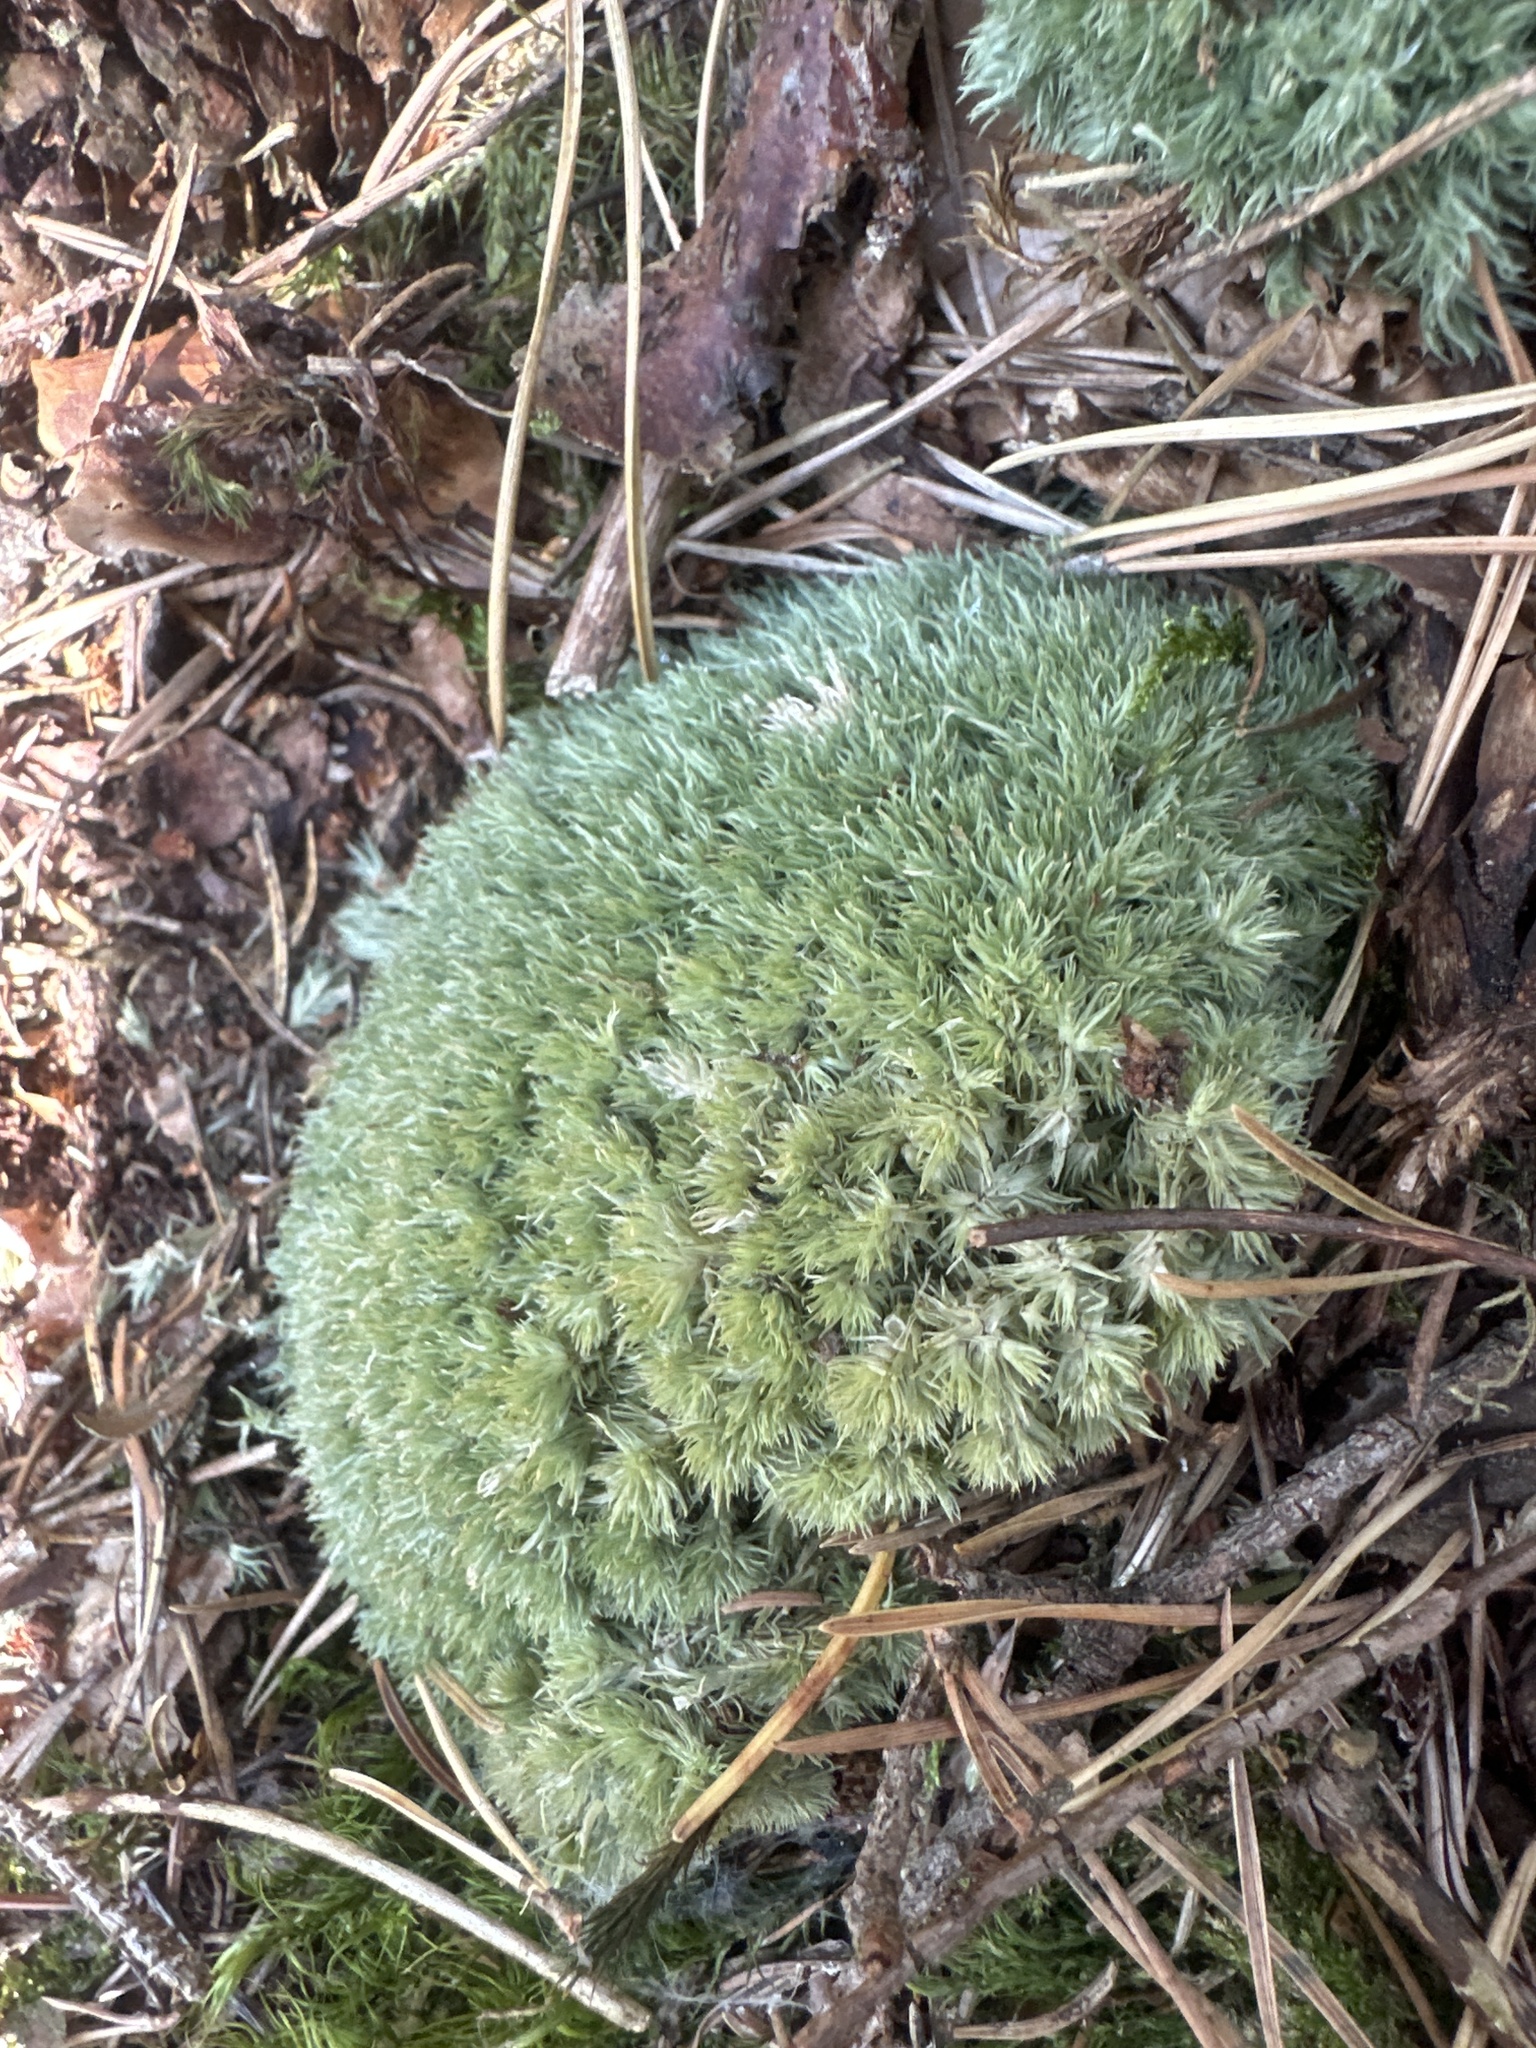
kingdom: Plantae
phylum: Bryophyta
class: Bryopsida
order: Dicranales
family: Leucobryaceae
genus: Leucobryum
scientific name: Leucobryum glaucum
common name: Large white-moss
